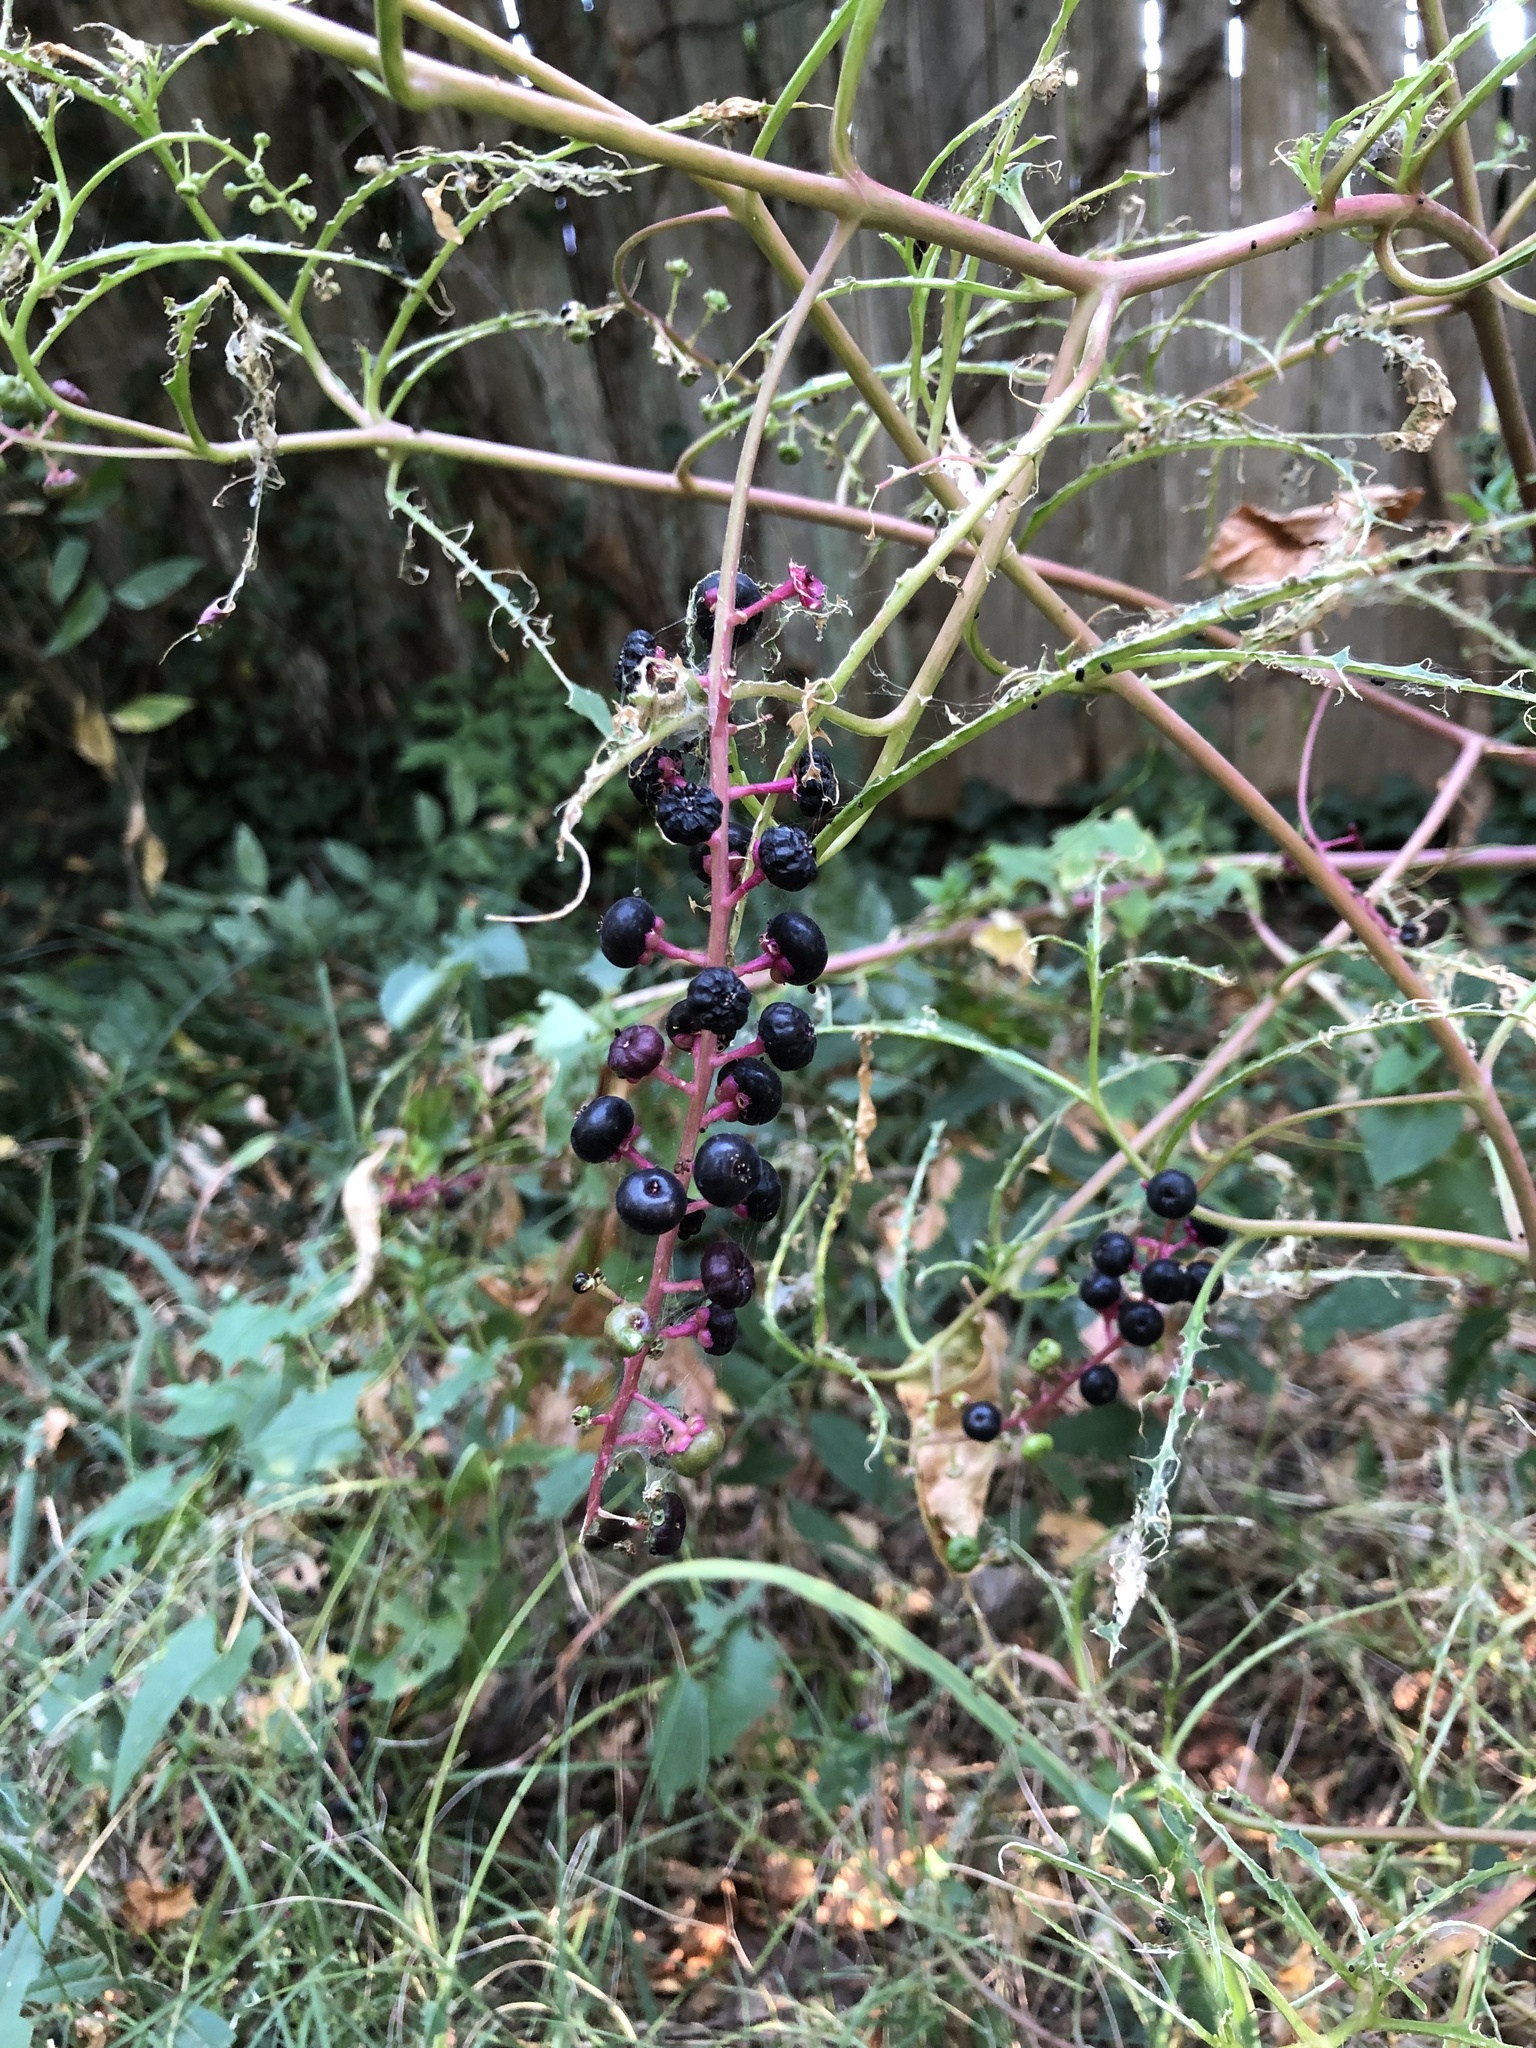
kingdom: Plantae
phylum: Tracheophyta
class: Magnoliopsida
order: Caryophyllales
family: Phytolaccaceae
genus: Phytolacca
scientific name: Phytolacca americana
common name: American pokeweed
